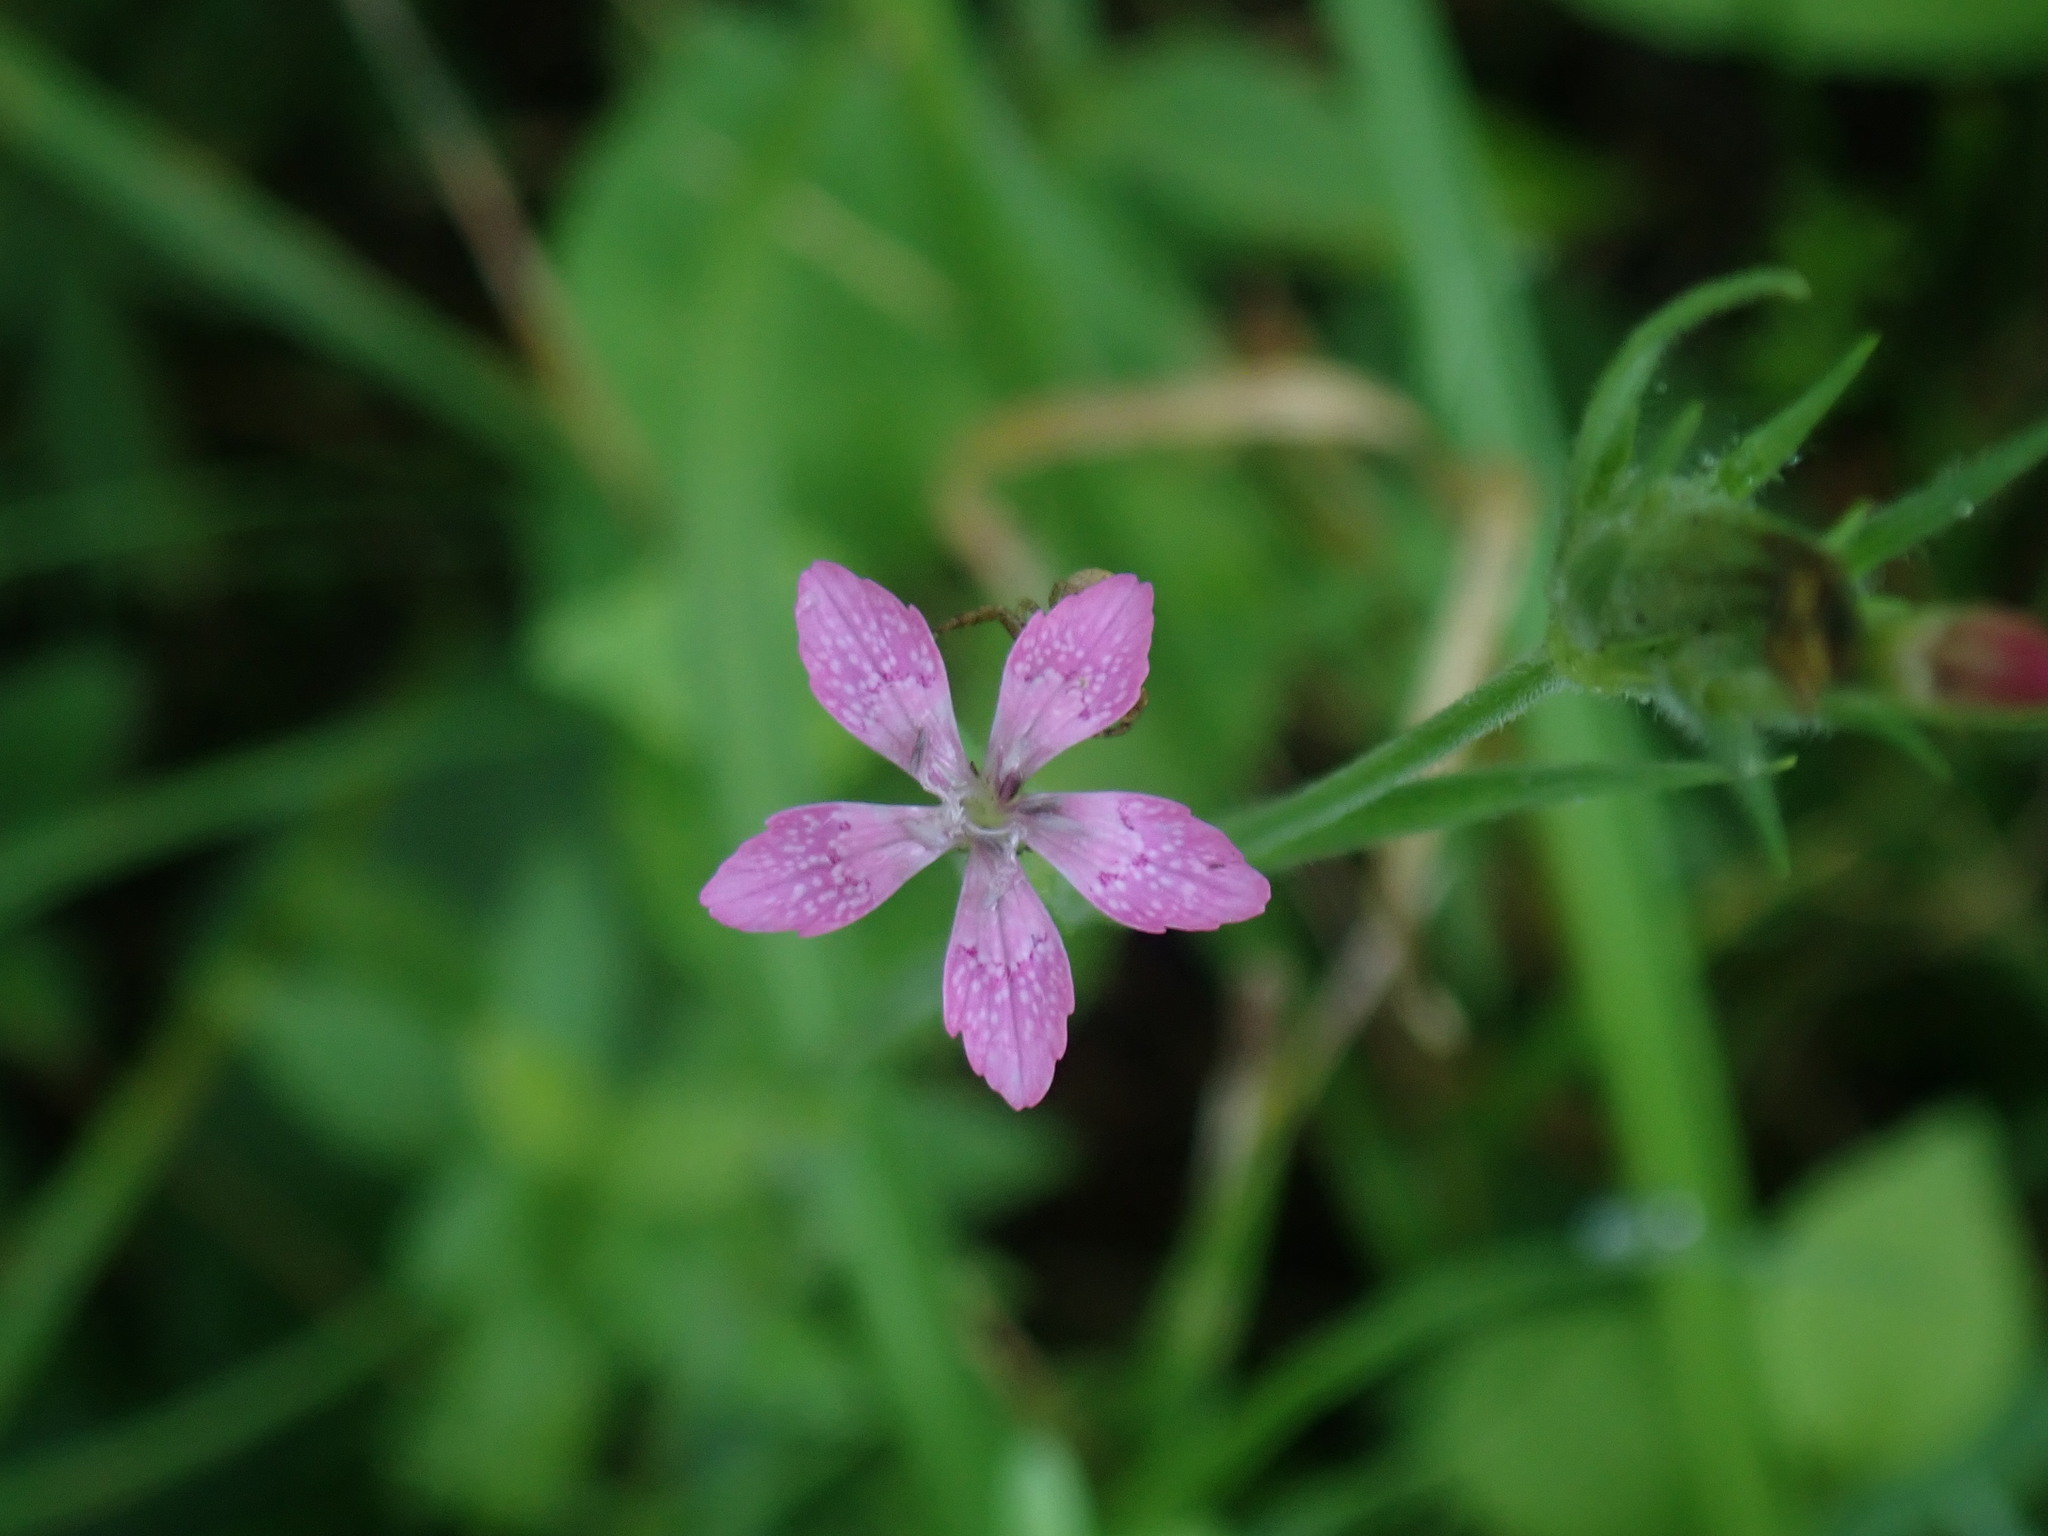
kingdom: Plantae
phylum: Tracheophyta
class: Magnoliopsida
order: Caryophyllales
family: Caryophyllaceae
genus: Dianthus
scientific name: Dianthus armeria
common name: Deptford pink
